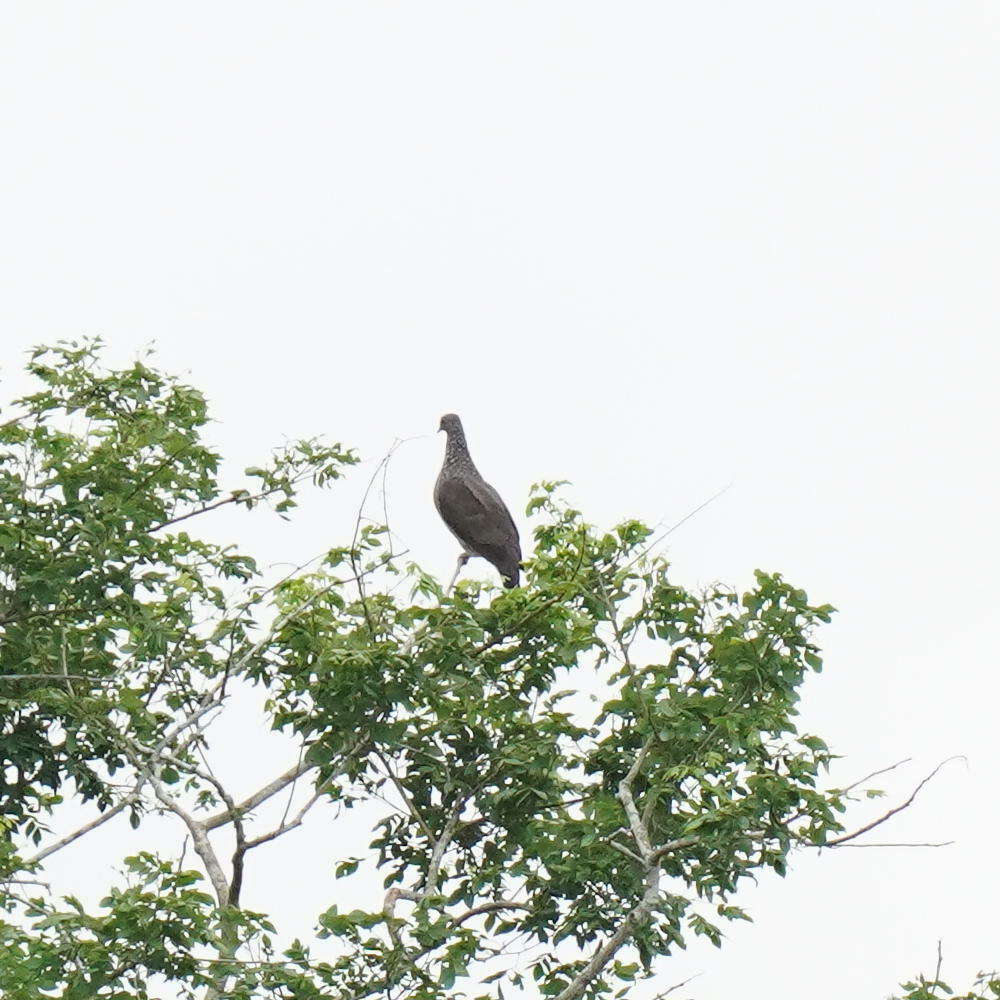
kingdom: Animalia
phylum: Chordata
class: Aves
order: Columbiformes
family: Columbidae
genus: Patagioenas
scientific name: Patagioenas speciosa
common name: Scaled pigeon
